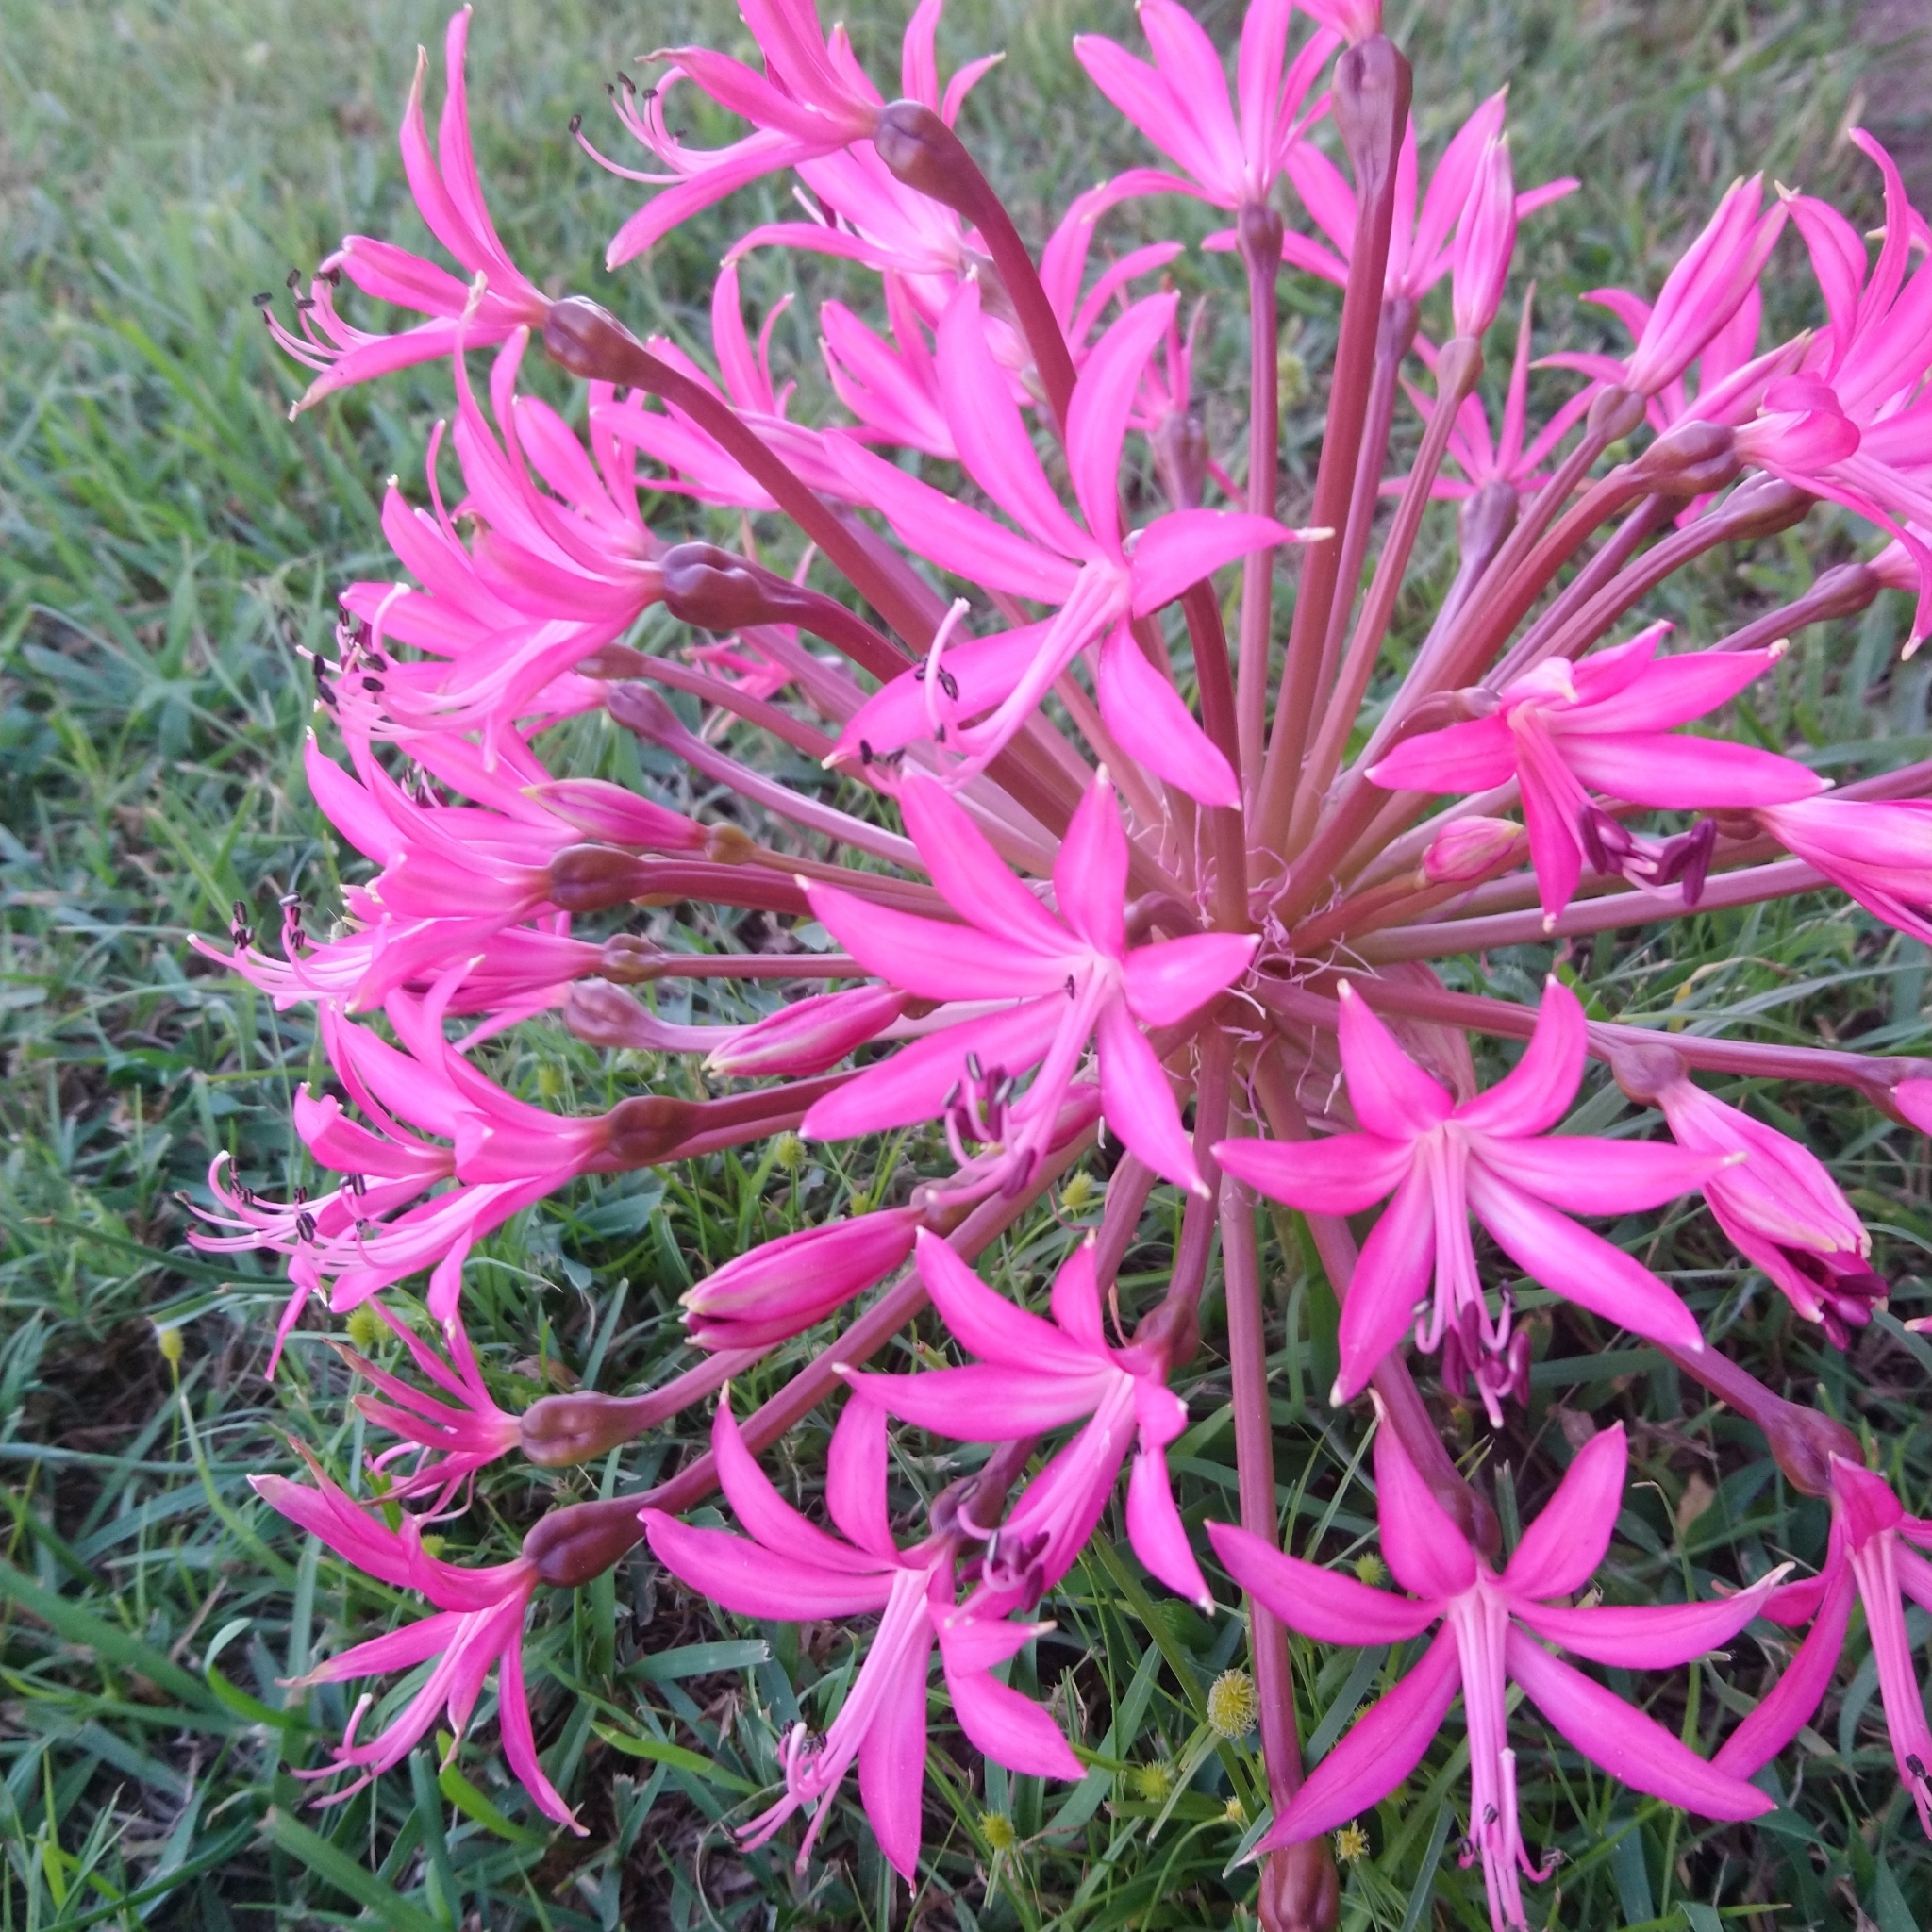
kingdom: Plantae
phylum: Tracheophyta
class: Liliopsida
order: Asparagales
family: Amaryllidaceae
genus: Brunsvigia
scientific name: Brunsvigia grandiflora
